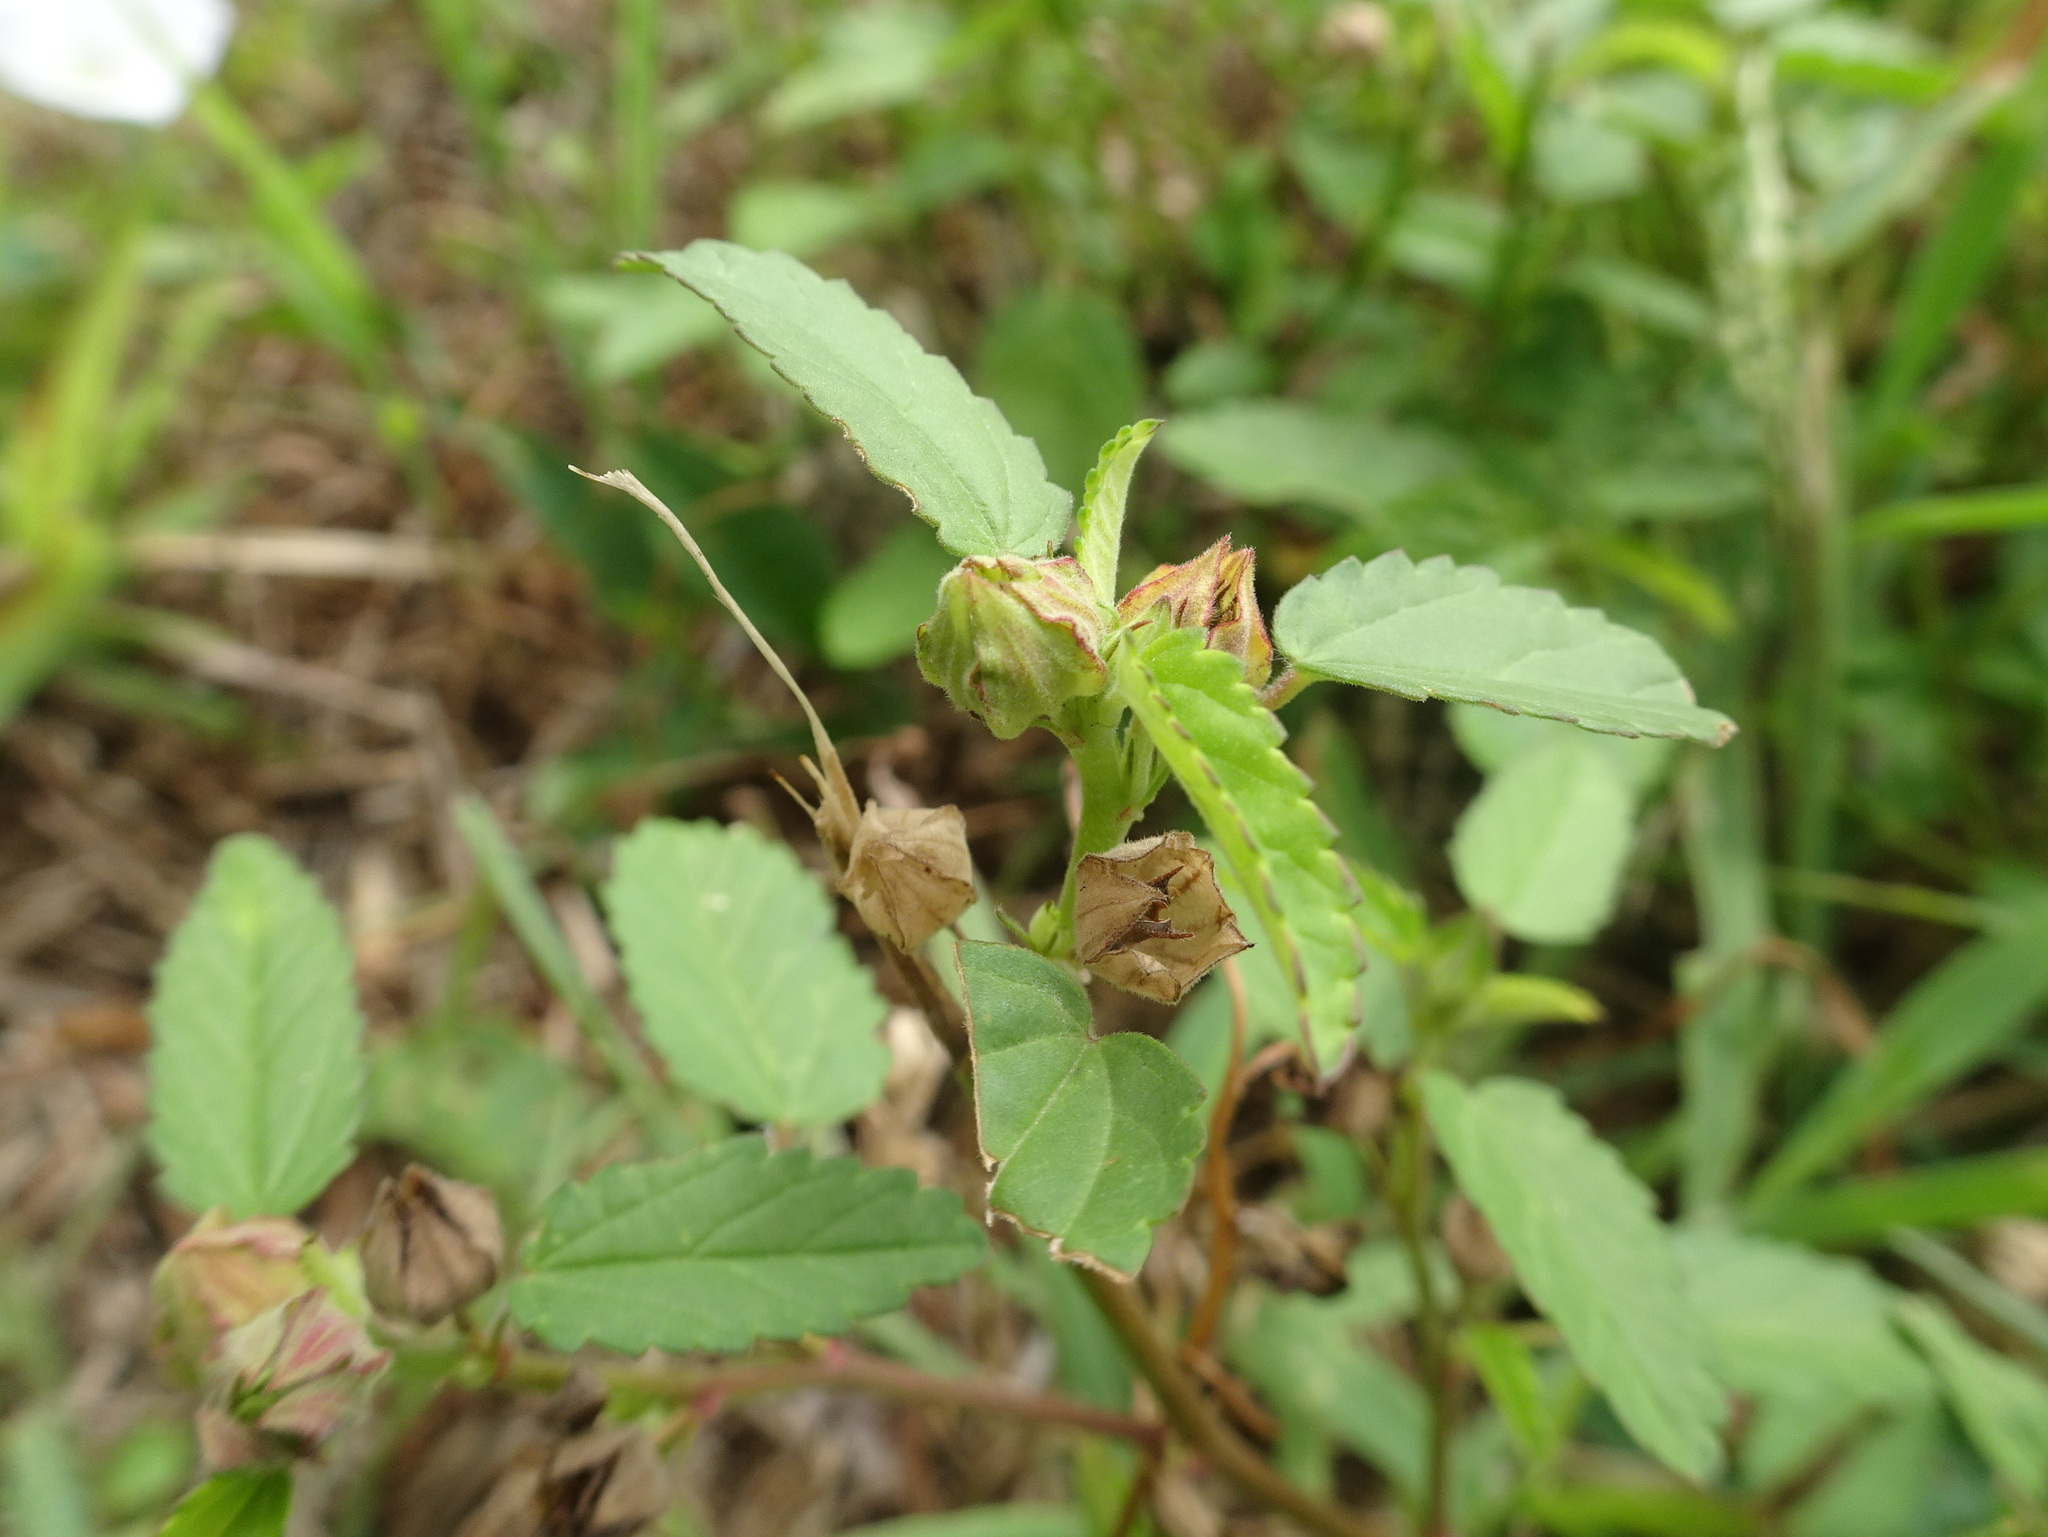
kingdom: Plantae
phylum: Tracheophyta
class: Magnoliopsida
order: Malvales
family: Malvaceae
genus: Sida
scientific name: Sida spinosa
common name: Prickly fanpetals
